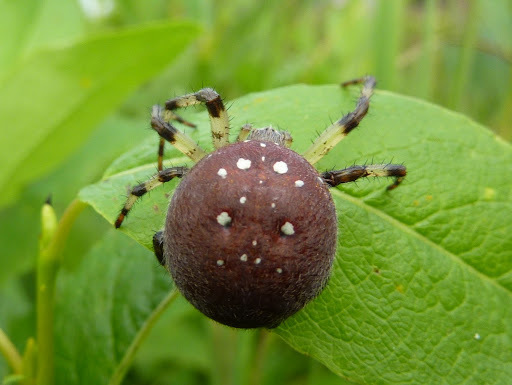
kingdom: Animalia
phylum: Arthropoda
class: Arachnida
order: Araneae
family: Araneidae
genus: Araneus
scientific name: Araneus trifolium
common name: Shamrock orbweaver
